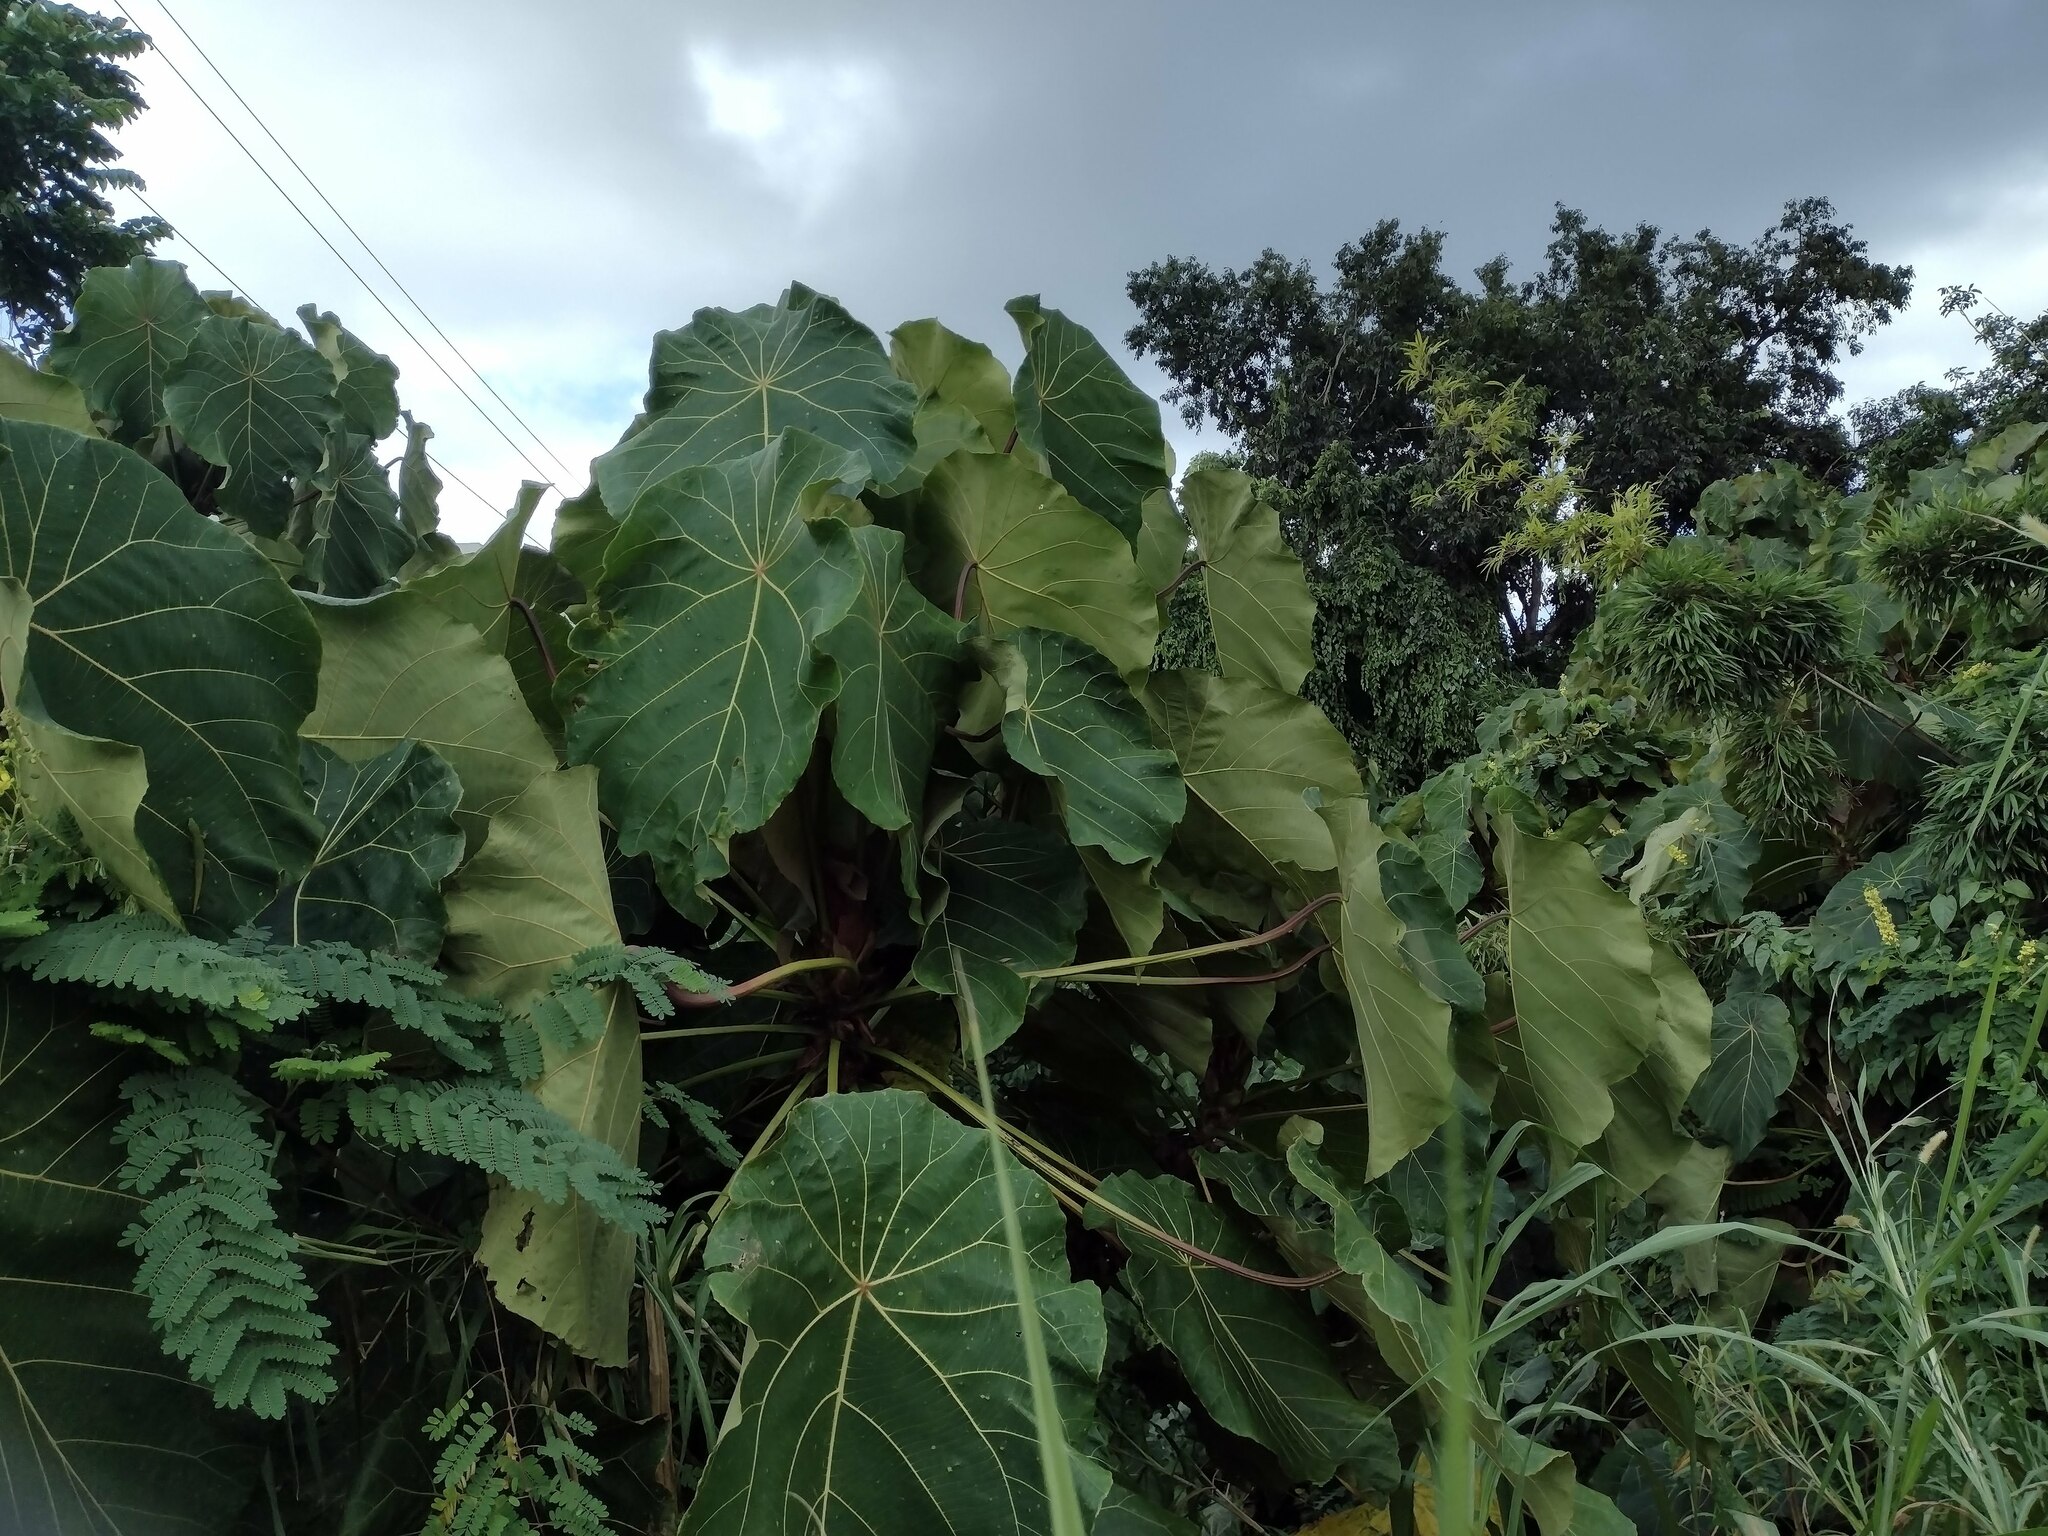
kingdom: Plantae
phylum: Tracheophyta
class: Magnoliopsida
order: Malpighiales
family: Euphorbiaceae
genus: Macaranga
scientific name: Macaranga mappa
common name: Pengua
